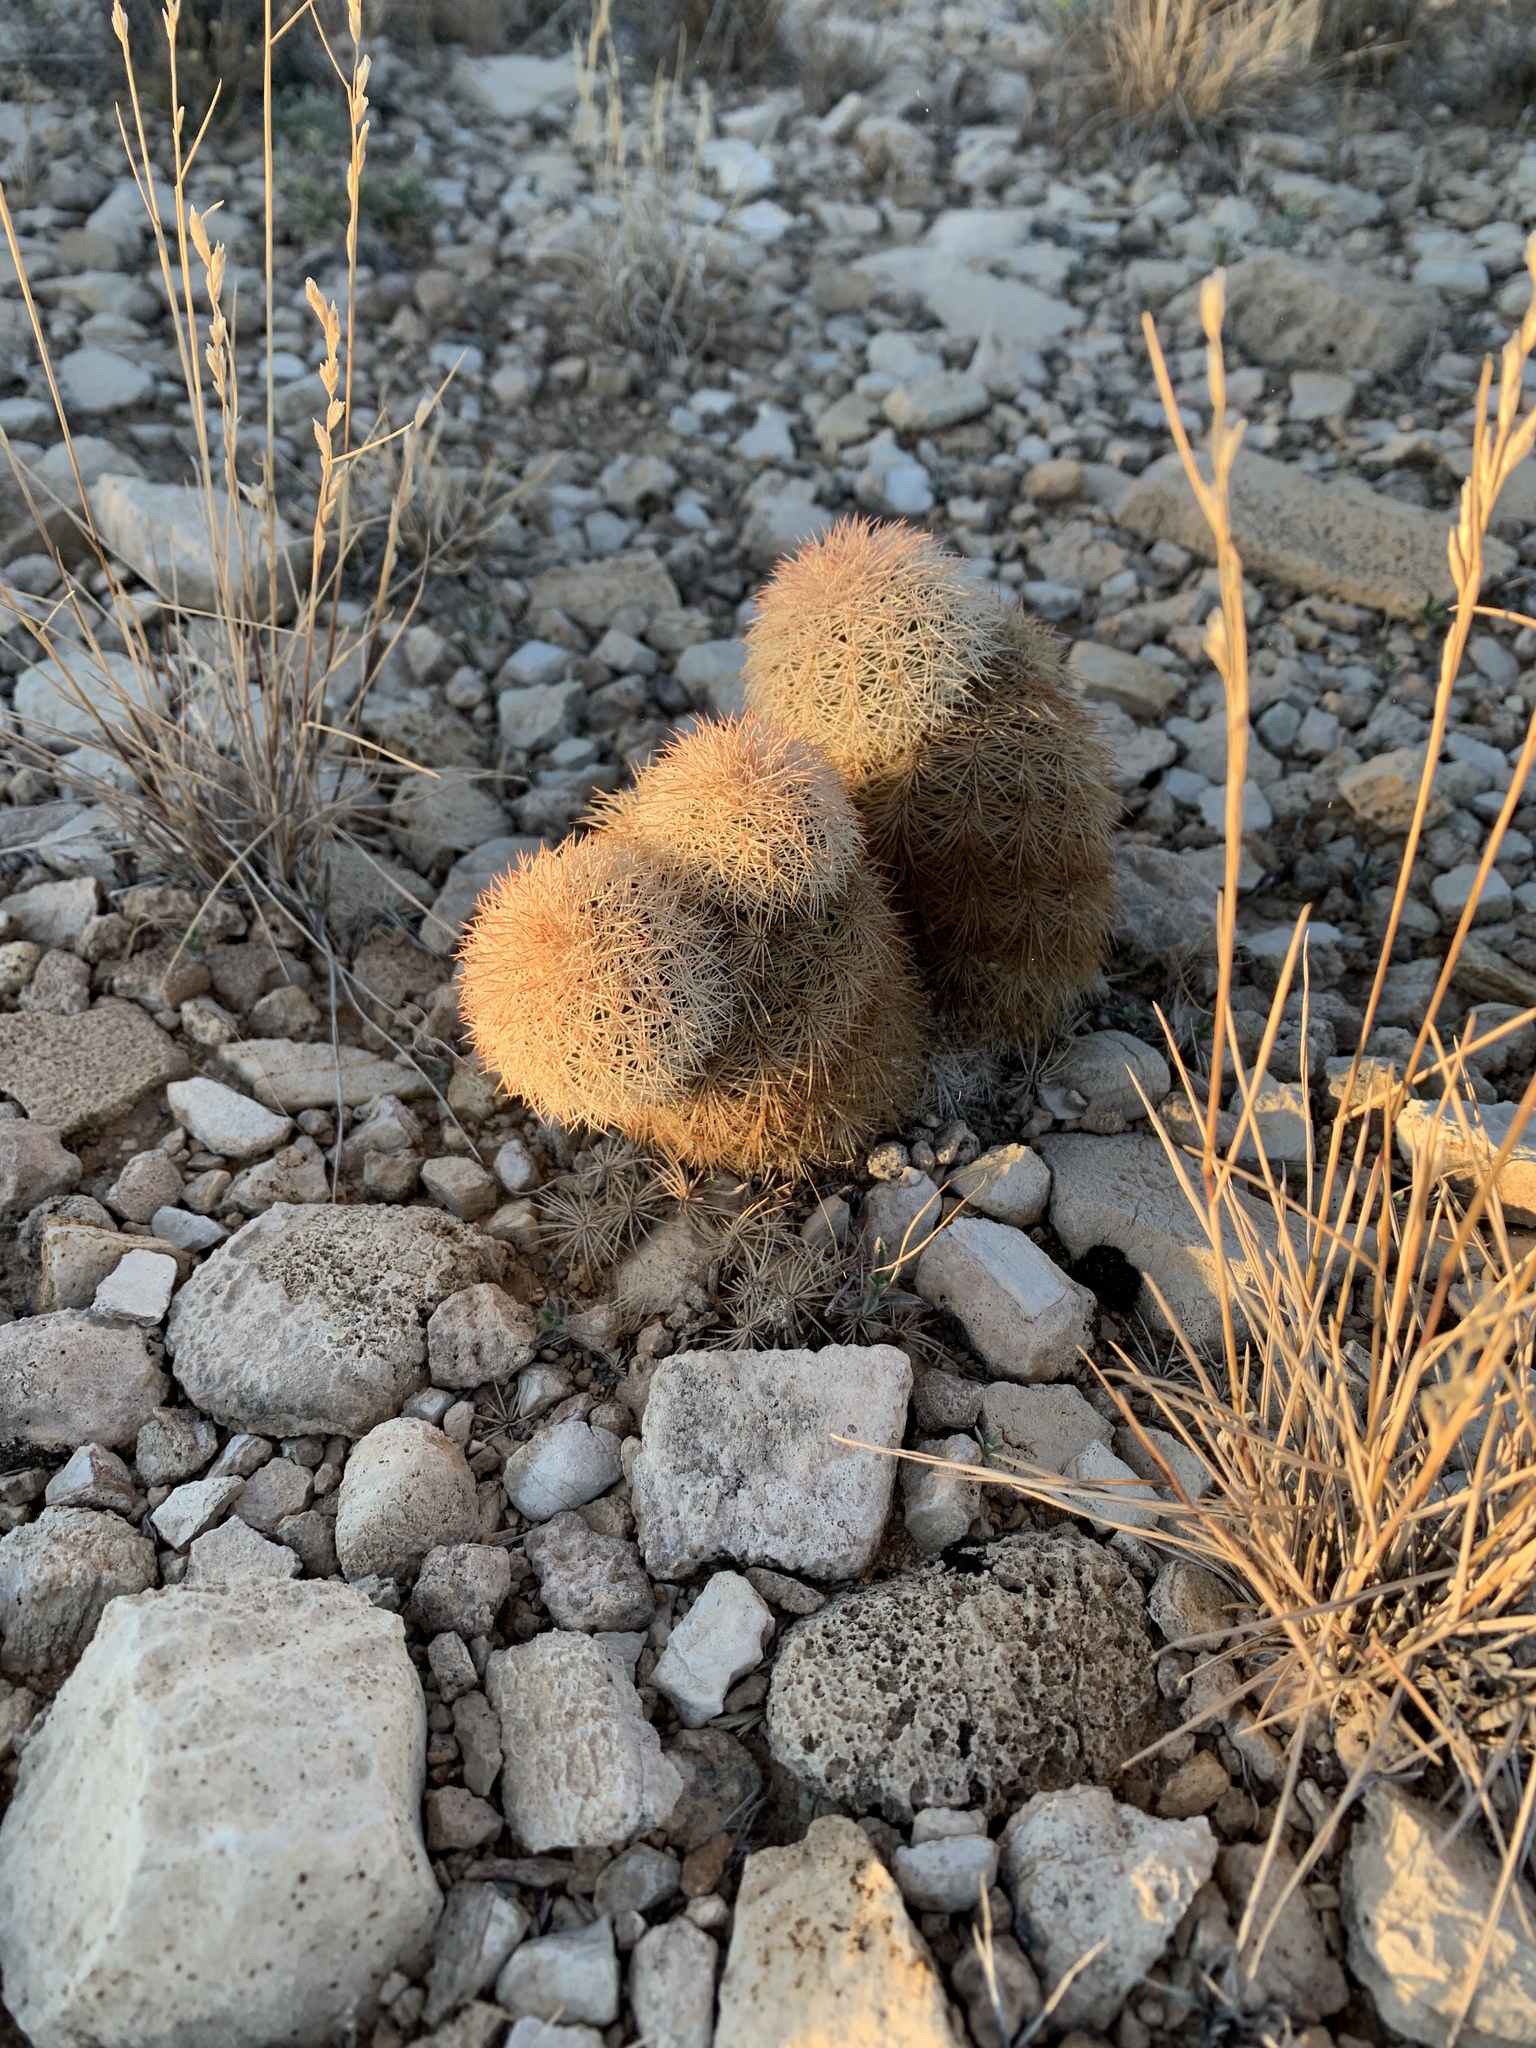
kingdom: Plantae
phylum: Tracheophyta
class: Magnoliopsida
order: Caryophyllales
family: Cactaceae
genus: Echinocereus
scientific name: Echinocereus dasyacanthus
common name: Spiny hedgehog cactus
